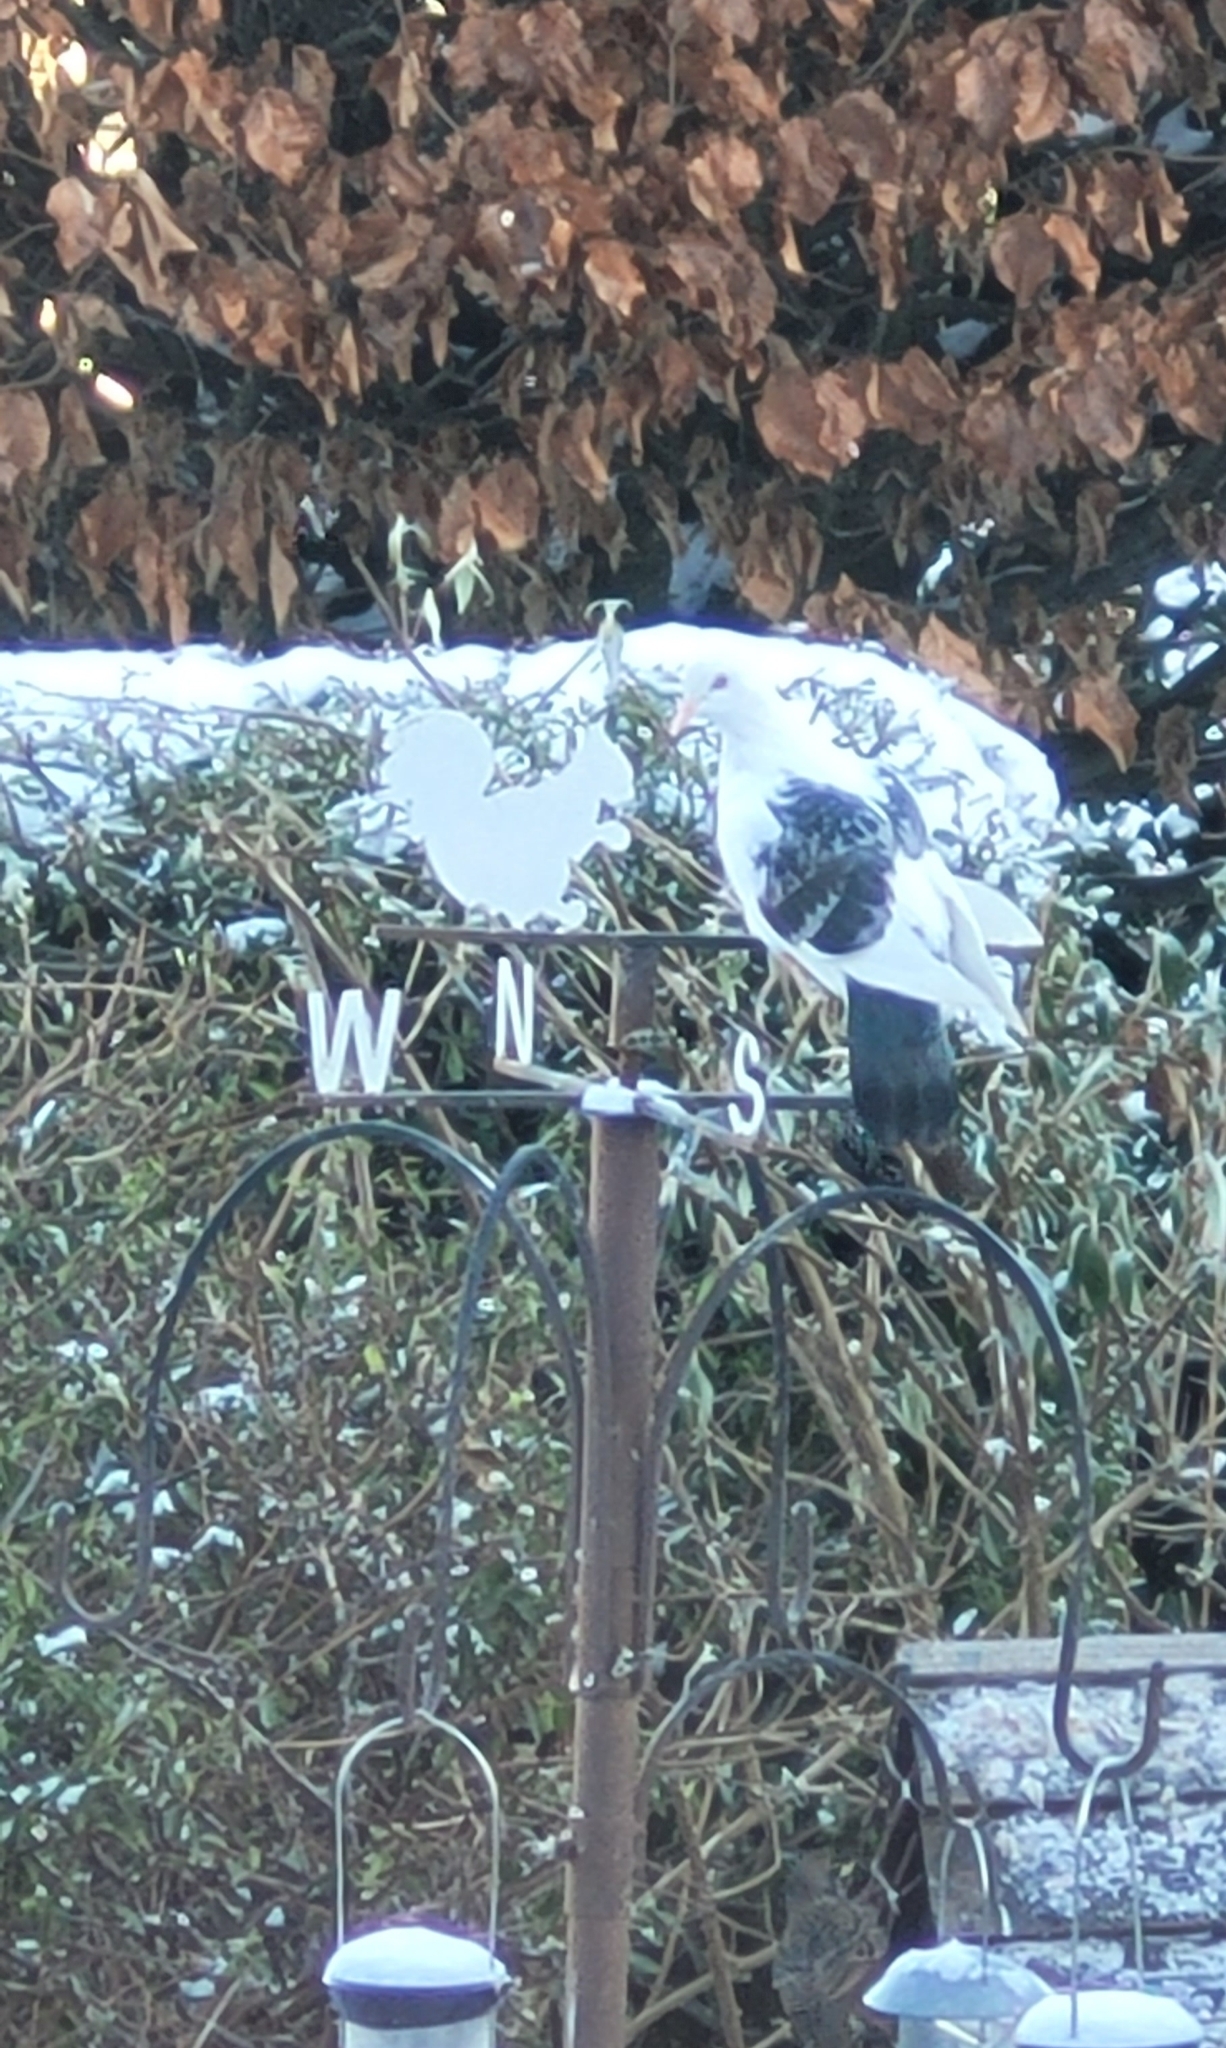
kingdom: Animalia
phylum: Chordata
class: Aves
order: Columbiformes
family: Columbidae
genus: Columba
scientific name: Columba livia
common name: Rock pigeon
